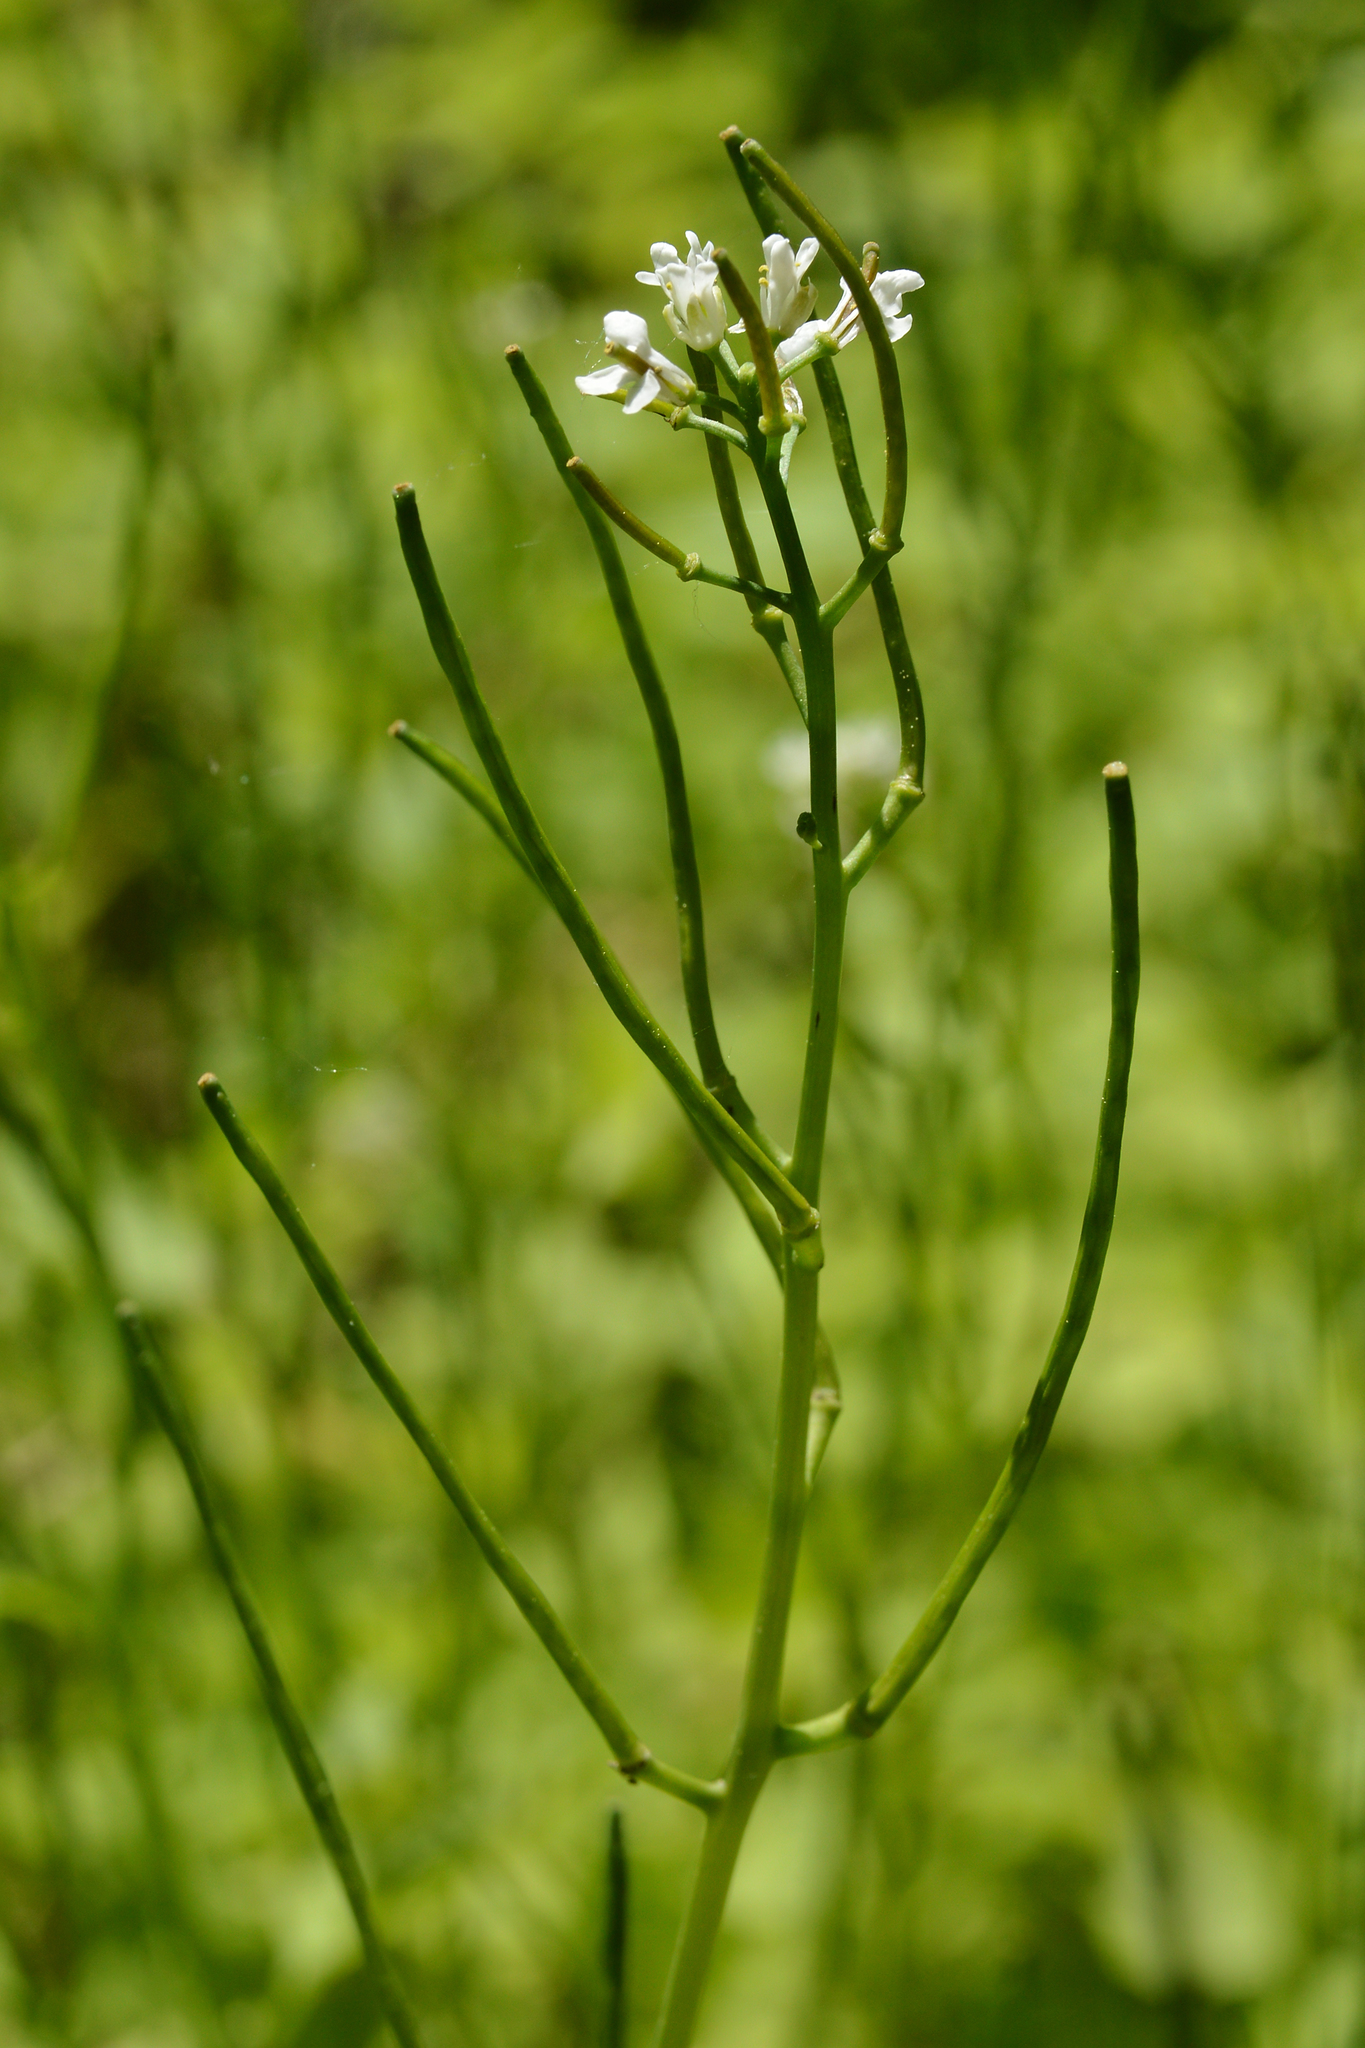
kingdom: Plantae
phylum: Tracheophyta
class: Magnoliopsida
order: Brassicales
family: Brassicaceae
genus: Alliaria
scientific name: Alliaria petiolata
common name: Garlic mustard
